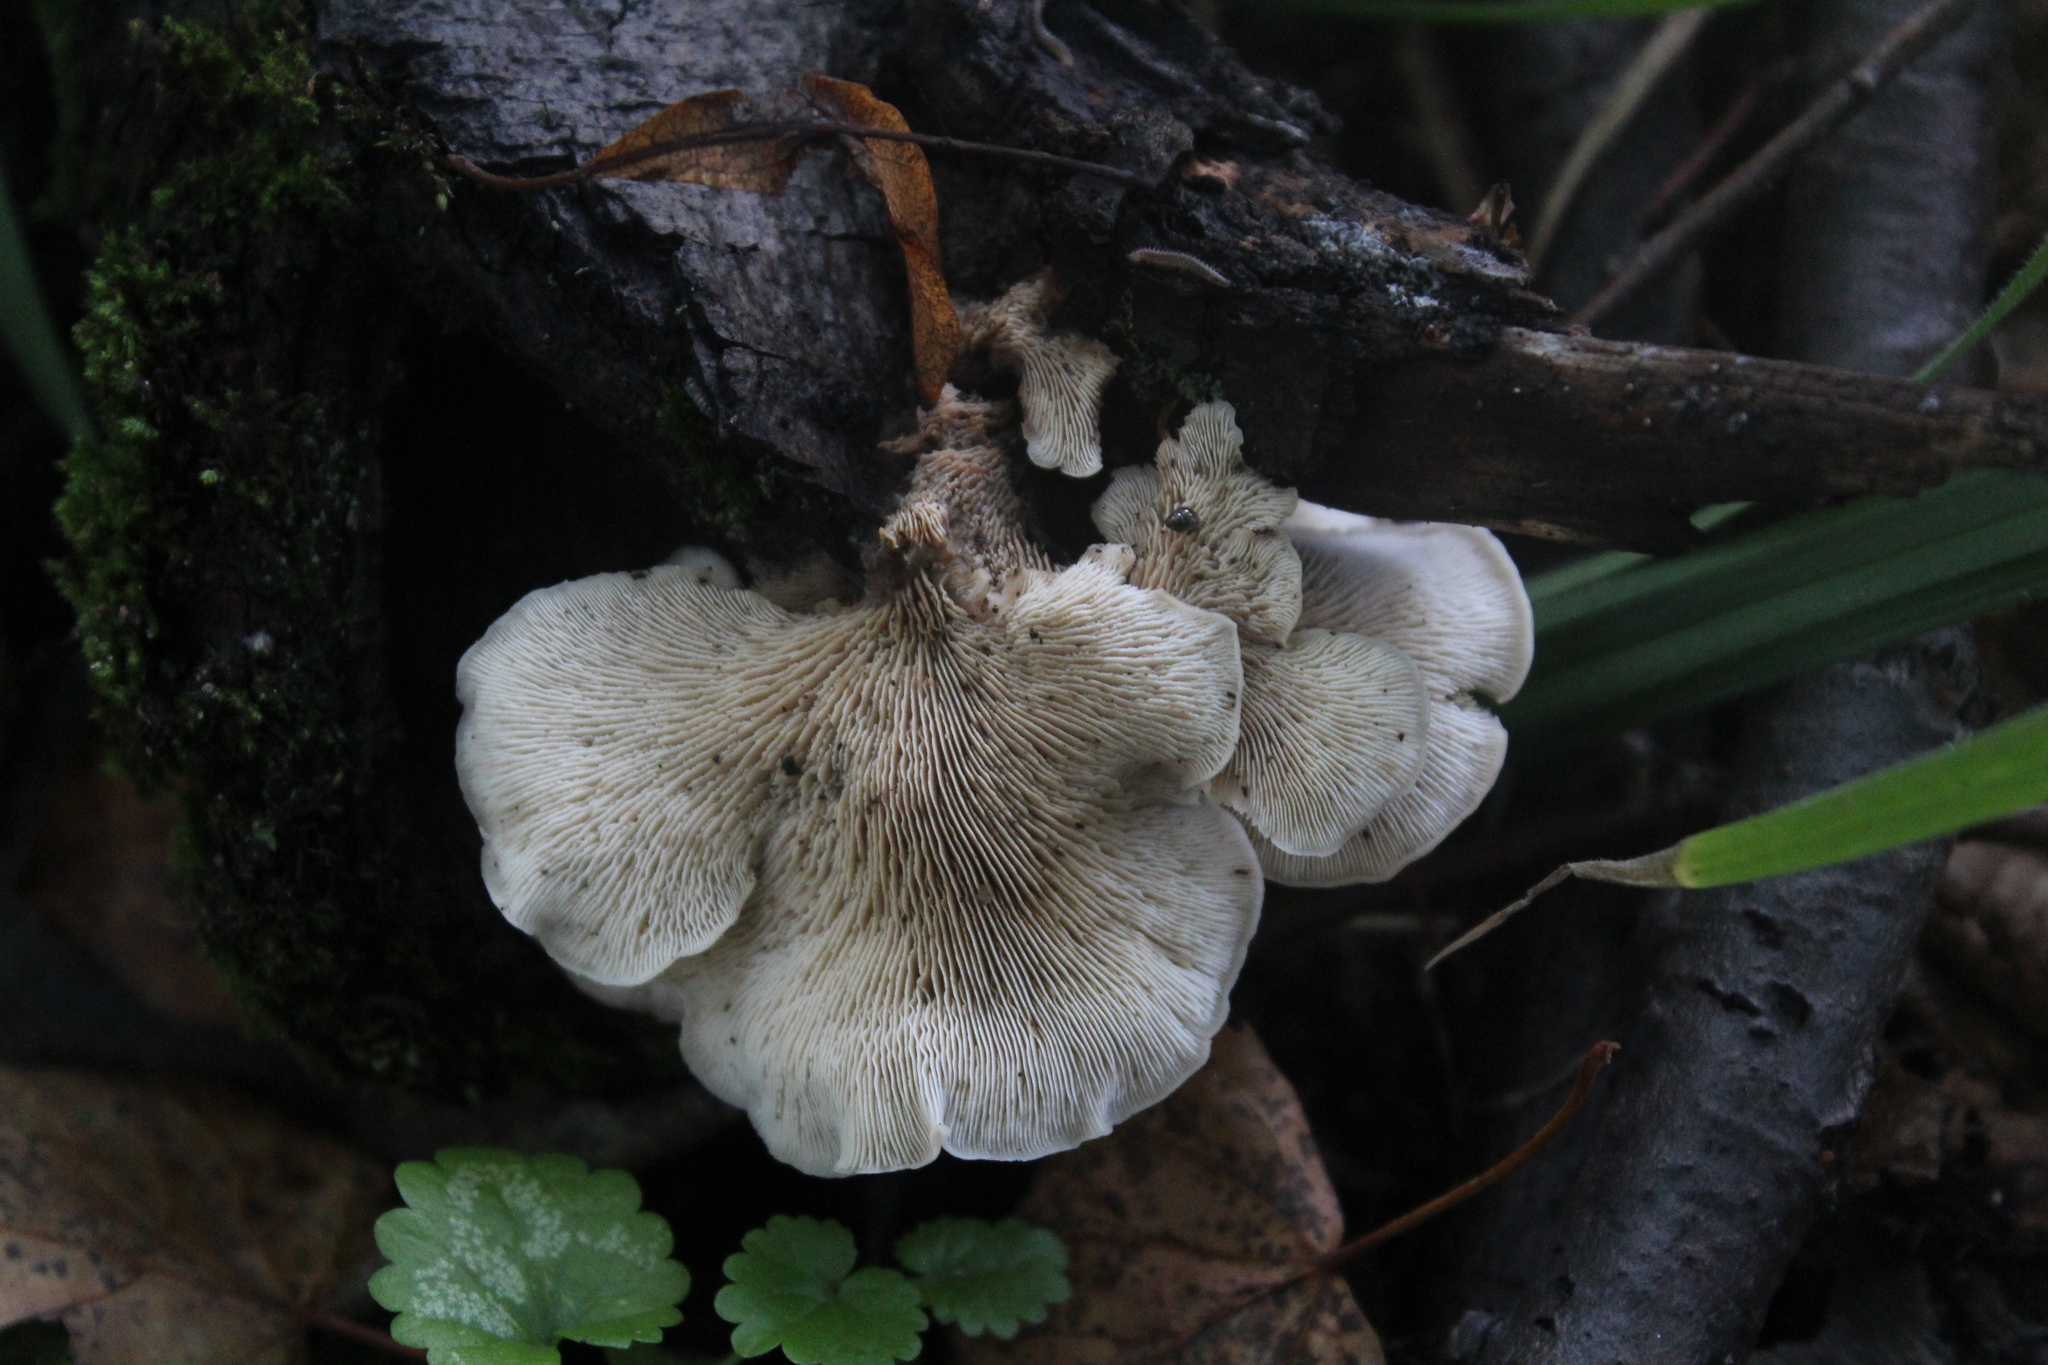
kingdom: Fungi
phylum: Basidiomycota
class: Agaricomycetes
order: Russulales
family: Auriscalpiaceae
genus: Lentinellus
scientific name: Lentinellus ursinus
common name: Bear lentinus
